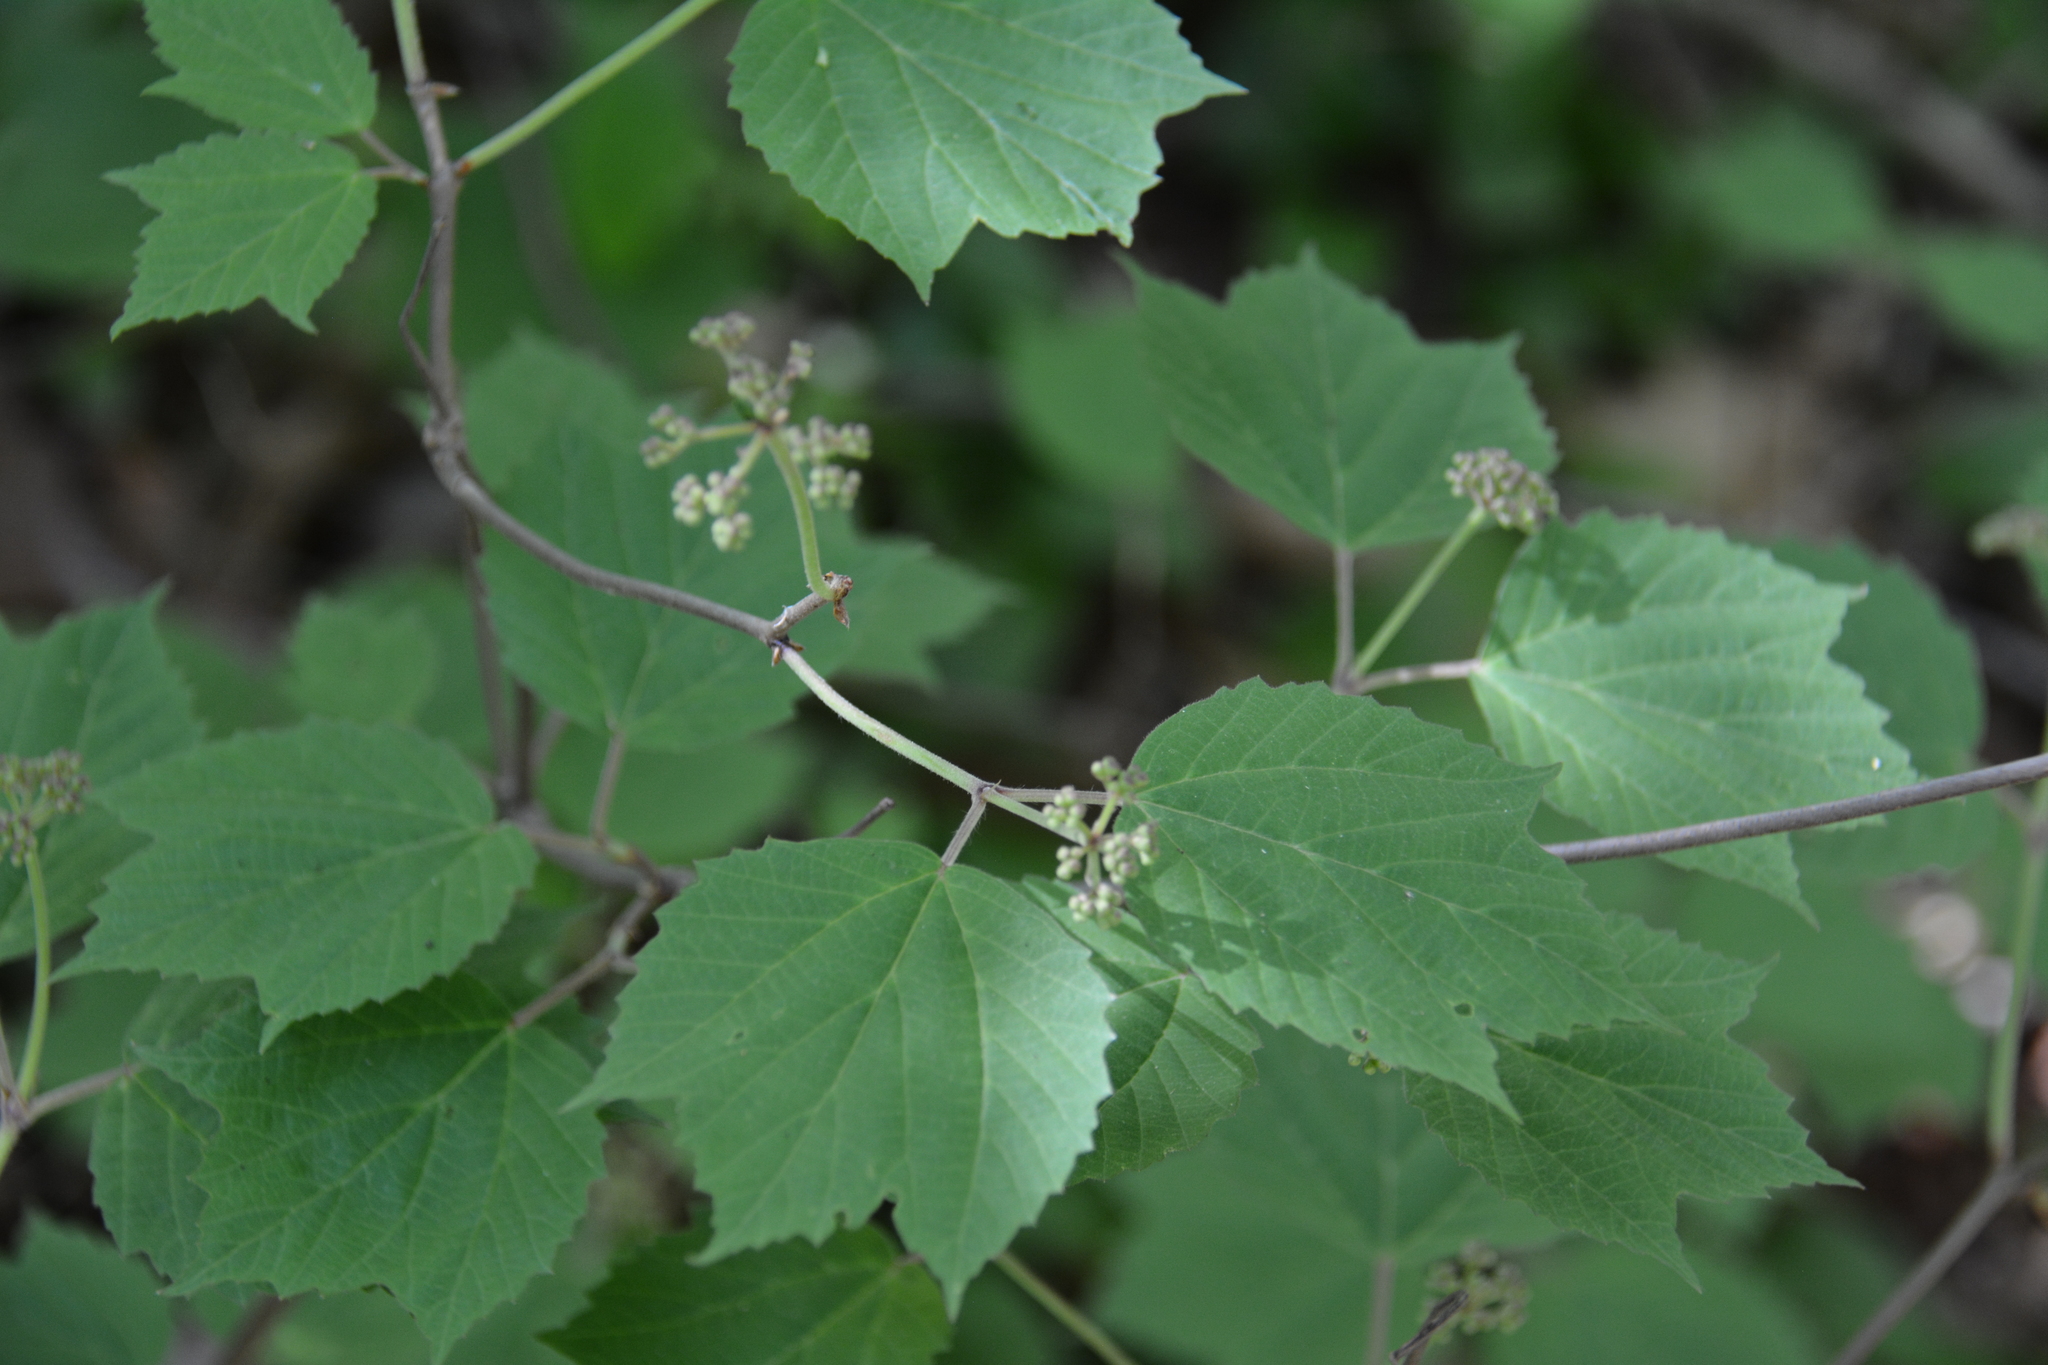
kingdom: Plantae
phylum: Tracheophyta
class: Magnoliopsida
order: Dipsacales
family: Viburnaceae
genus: Viburnum
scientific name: Viburnum acerifolium
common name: Dockmackie
